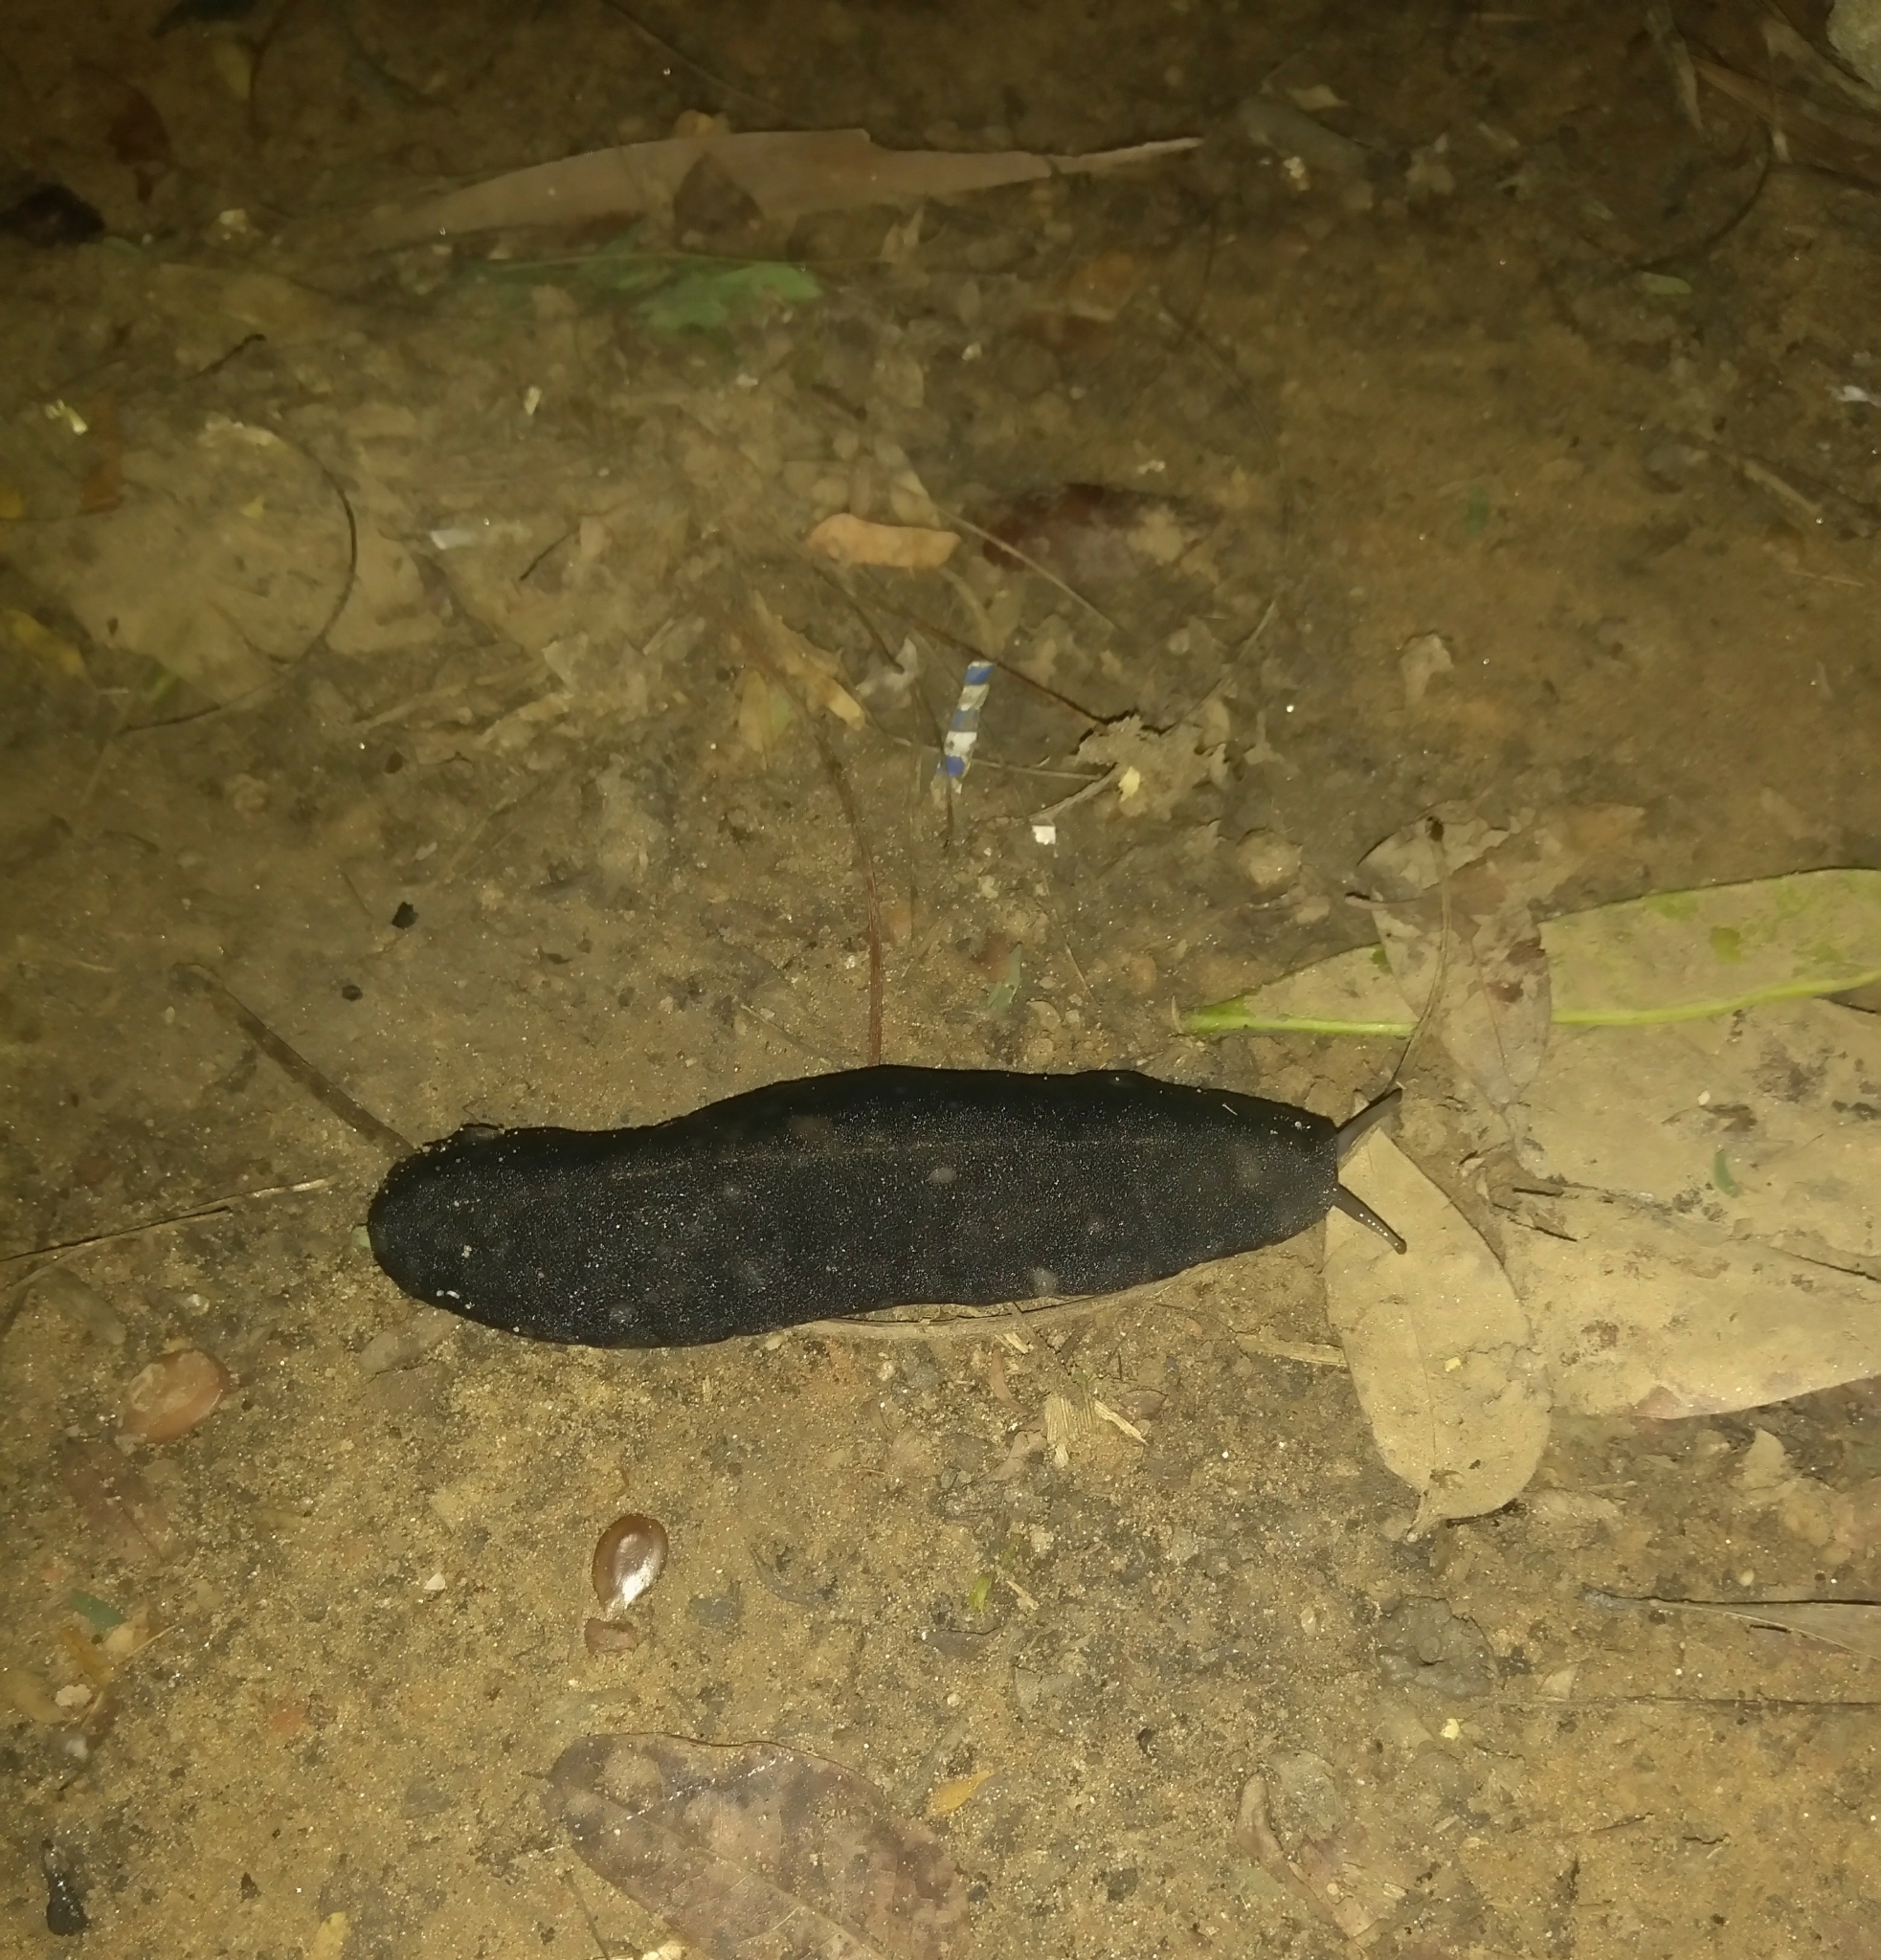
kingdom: Animalia
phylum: Mollusca
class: Gastropoda
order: Systellommatophora
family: Veronicellidae
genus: Laevicaulis
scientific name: Laevicaulis alte
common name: Tropical leatherleaf
